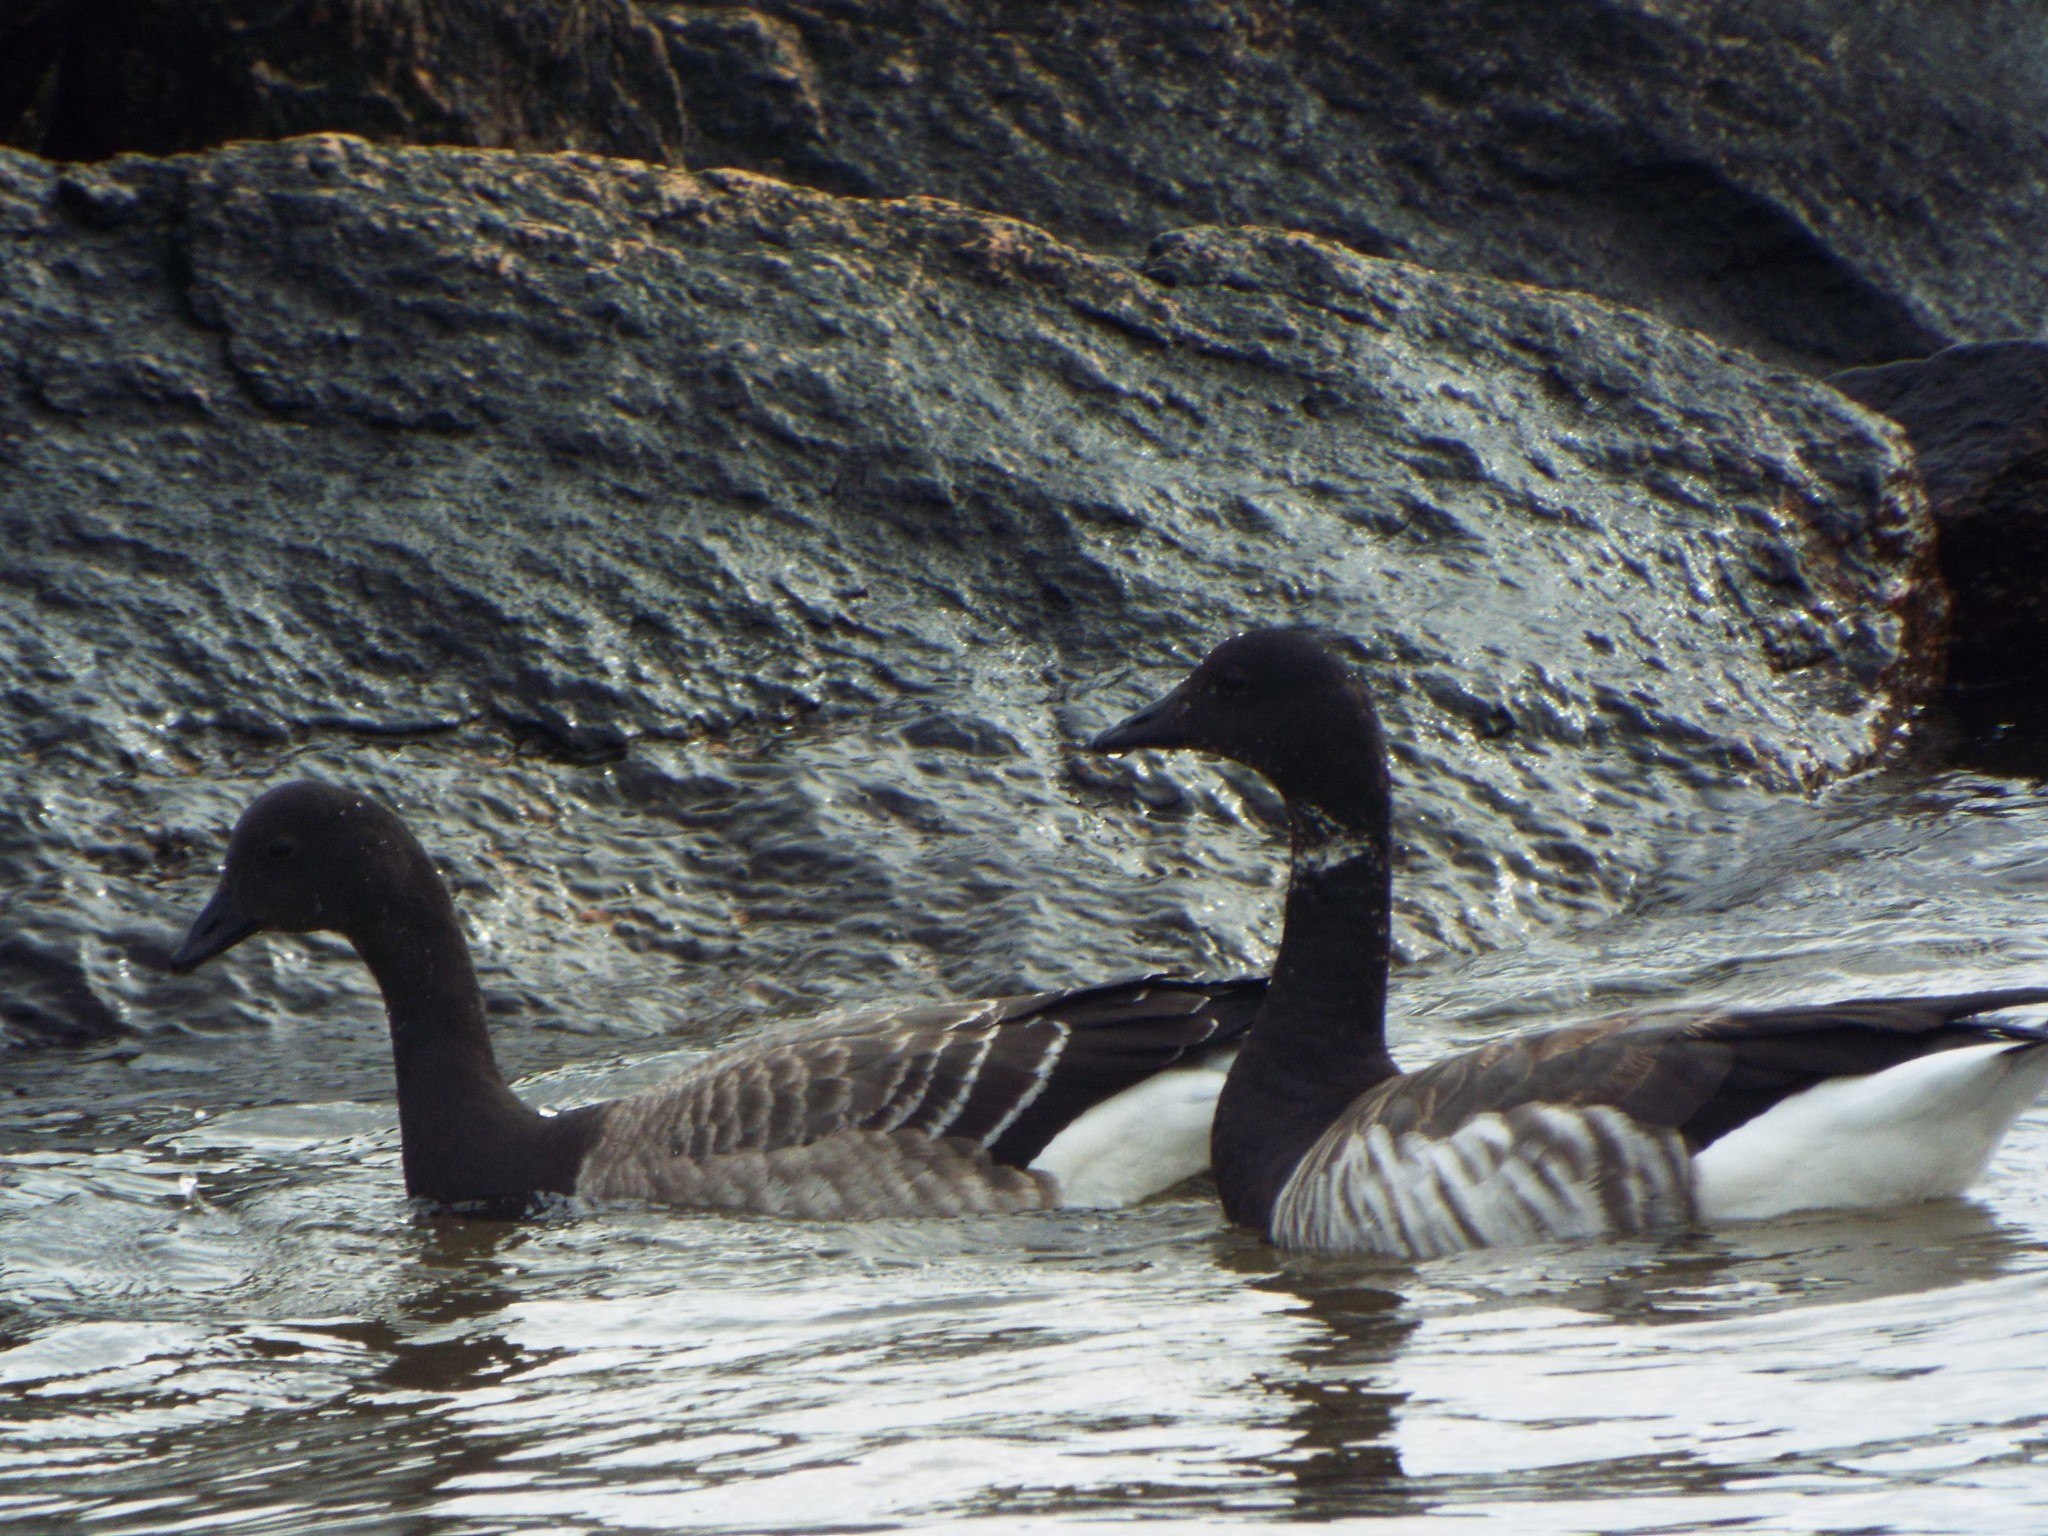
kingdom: Animalia
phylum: Chordata
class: Aves
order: Anseriformes
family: Anatidae
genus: Branta
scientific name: Branta bernicla
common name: Brant goose
